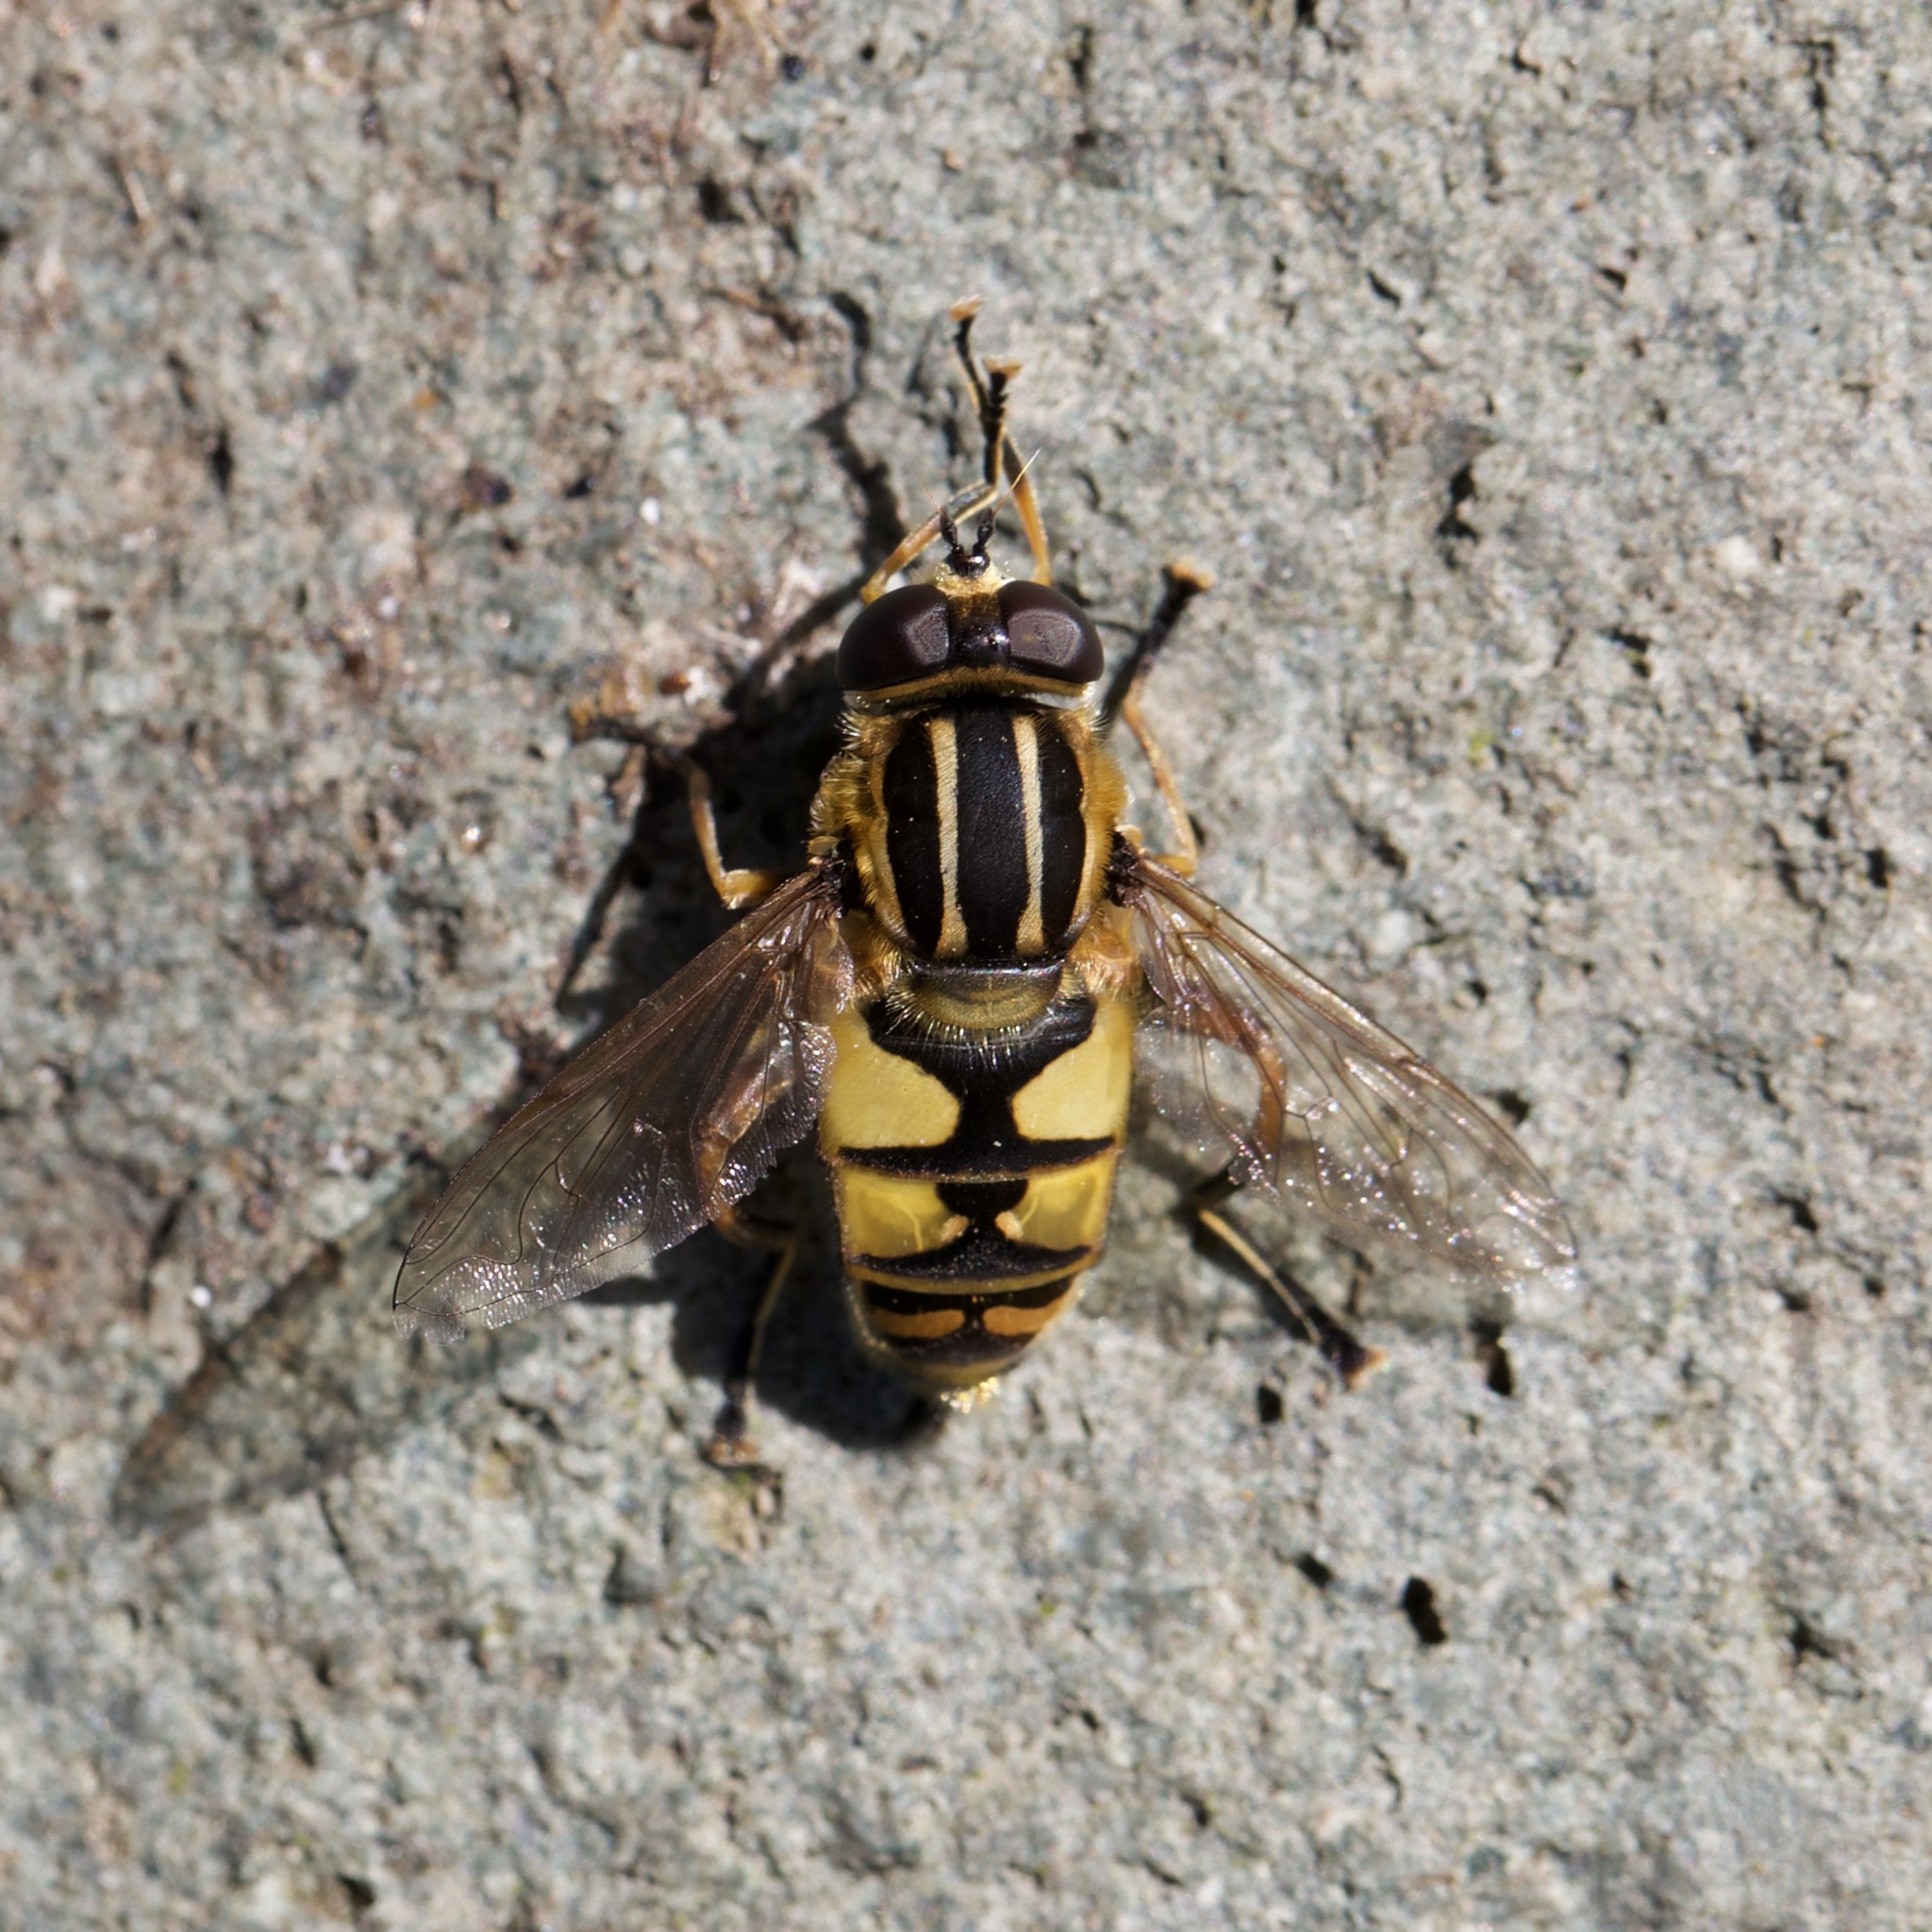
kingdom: Animalia
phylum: Arthropoda
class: Insecta
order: Diptera
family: Syrphidae
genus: Helophilus
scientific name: Helophilus pendulus
